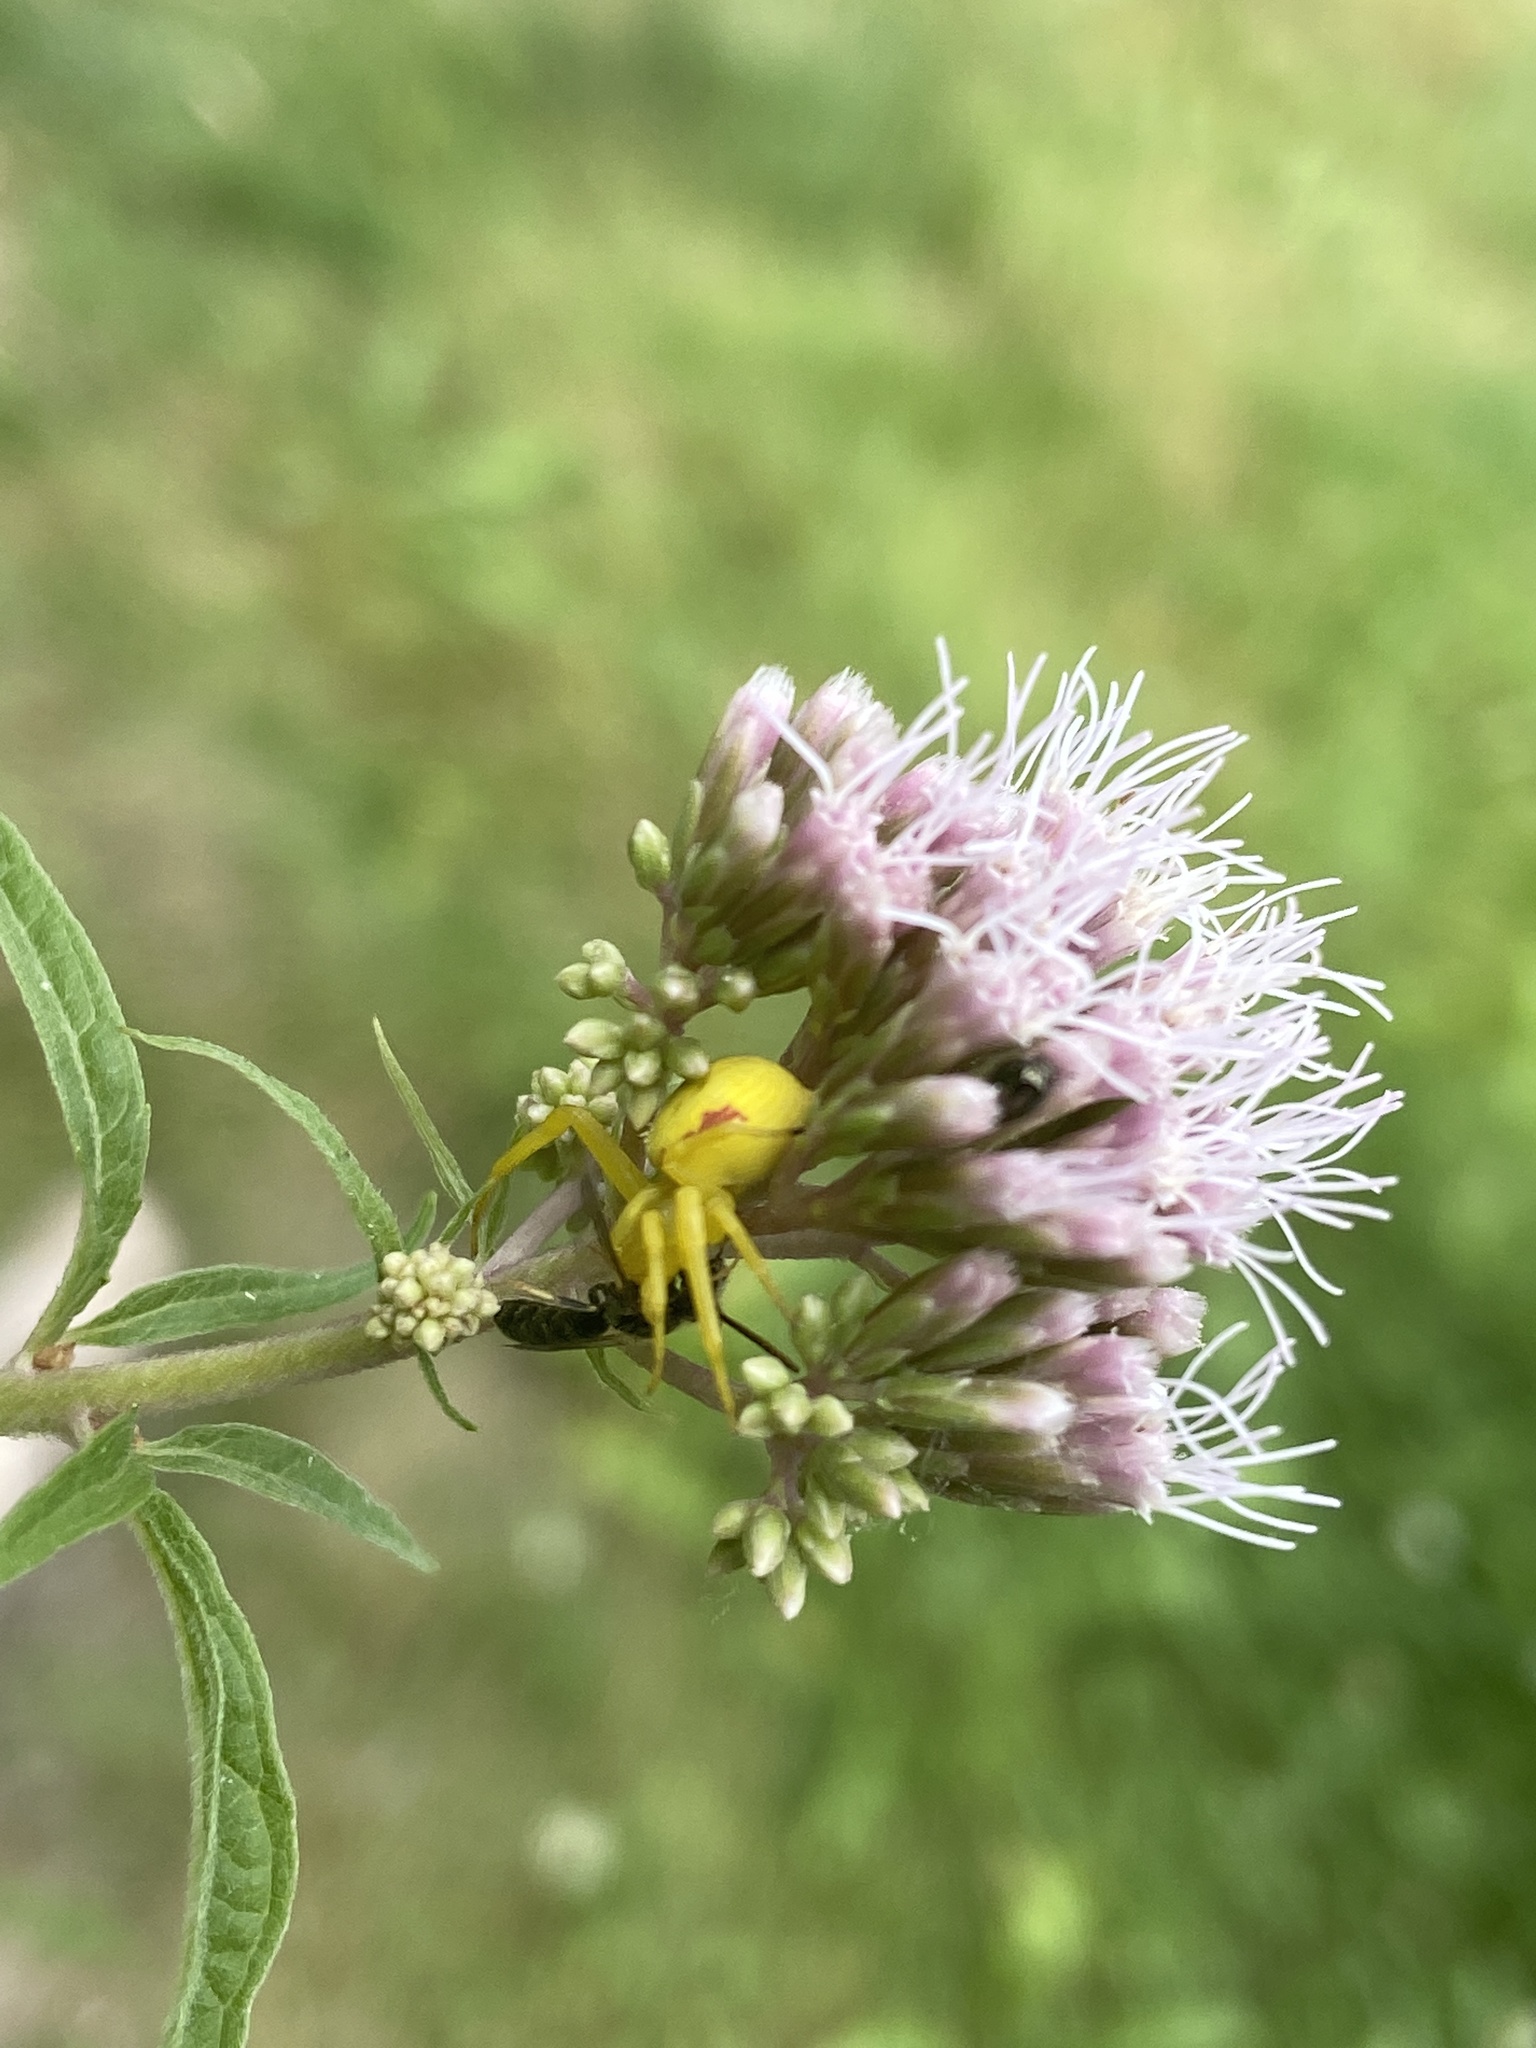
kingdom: Animalia
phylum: Arthropoda
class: Arachnida
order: Araneae
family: Thomisidae
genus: Misumena
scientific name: Misumena vatia
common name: Goldenrod crab spider
